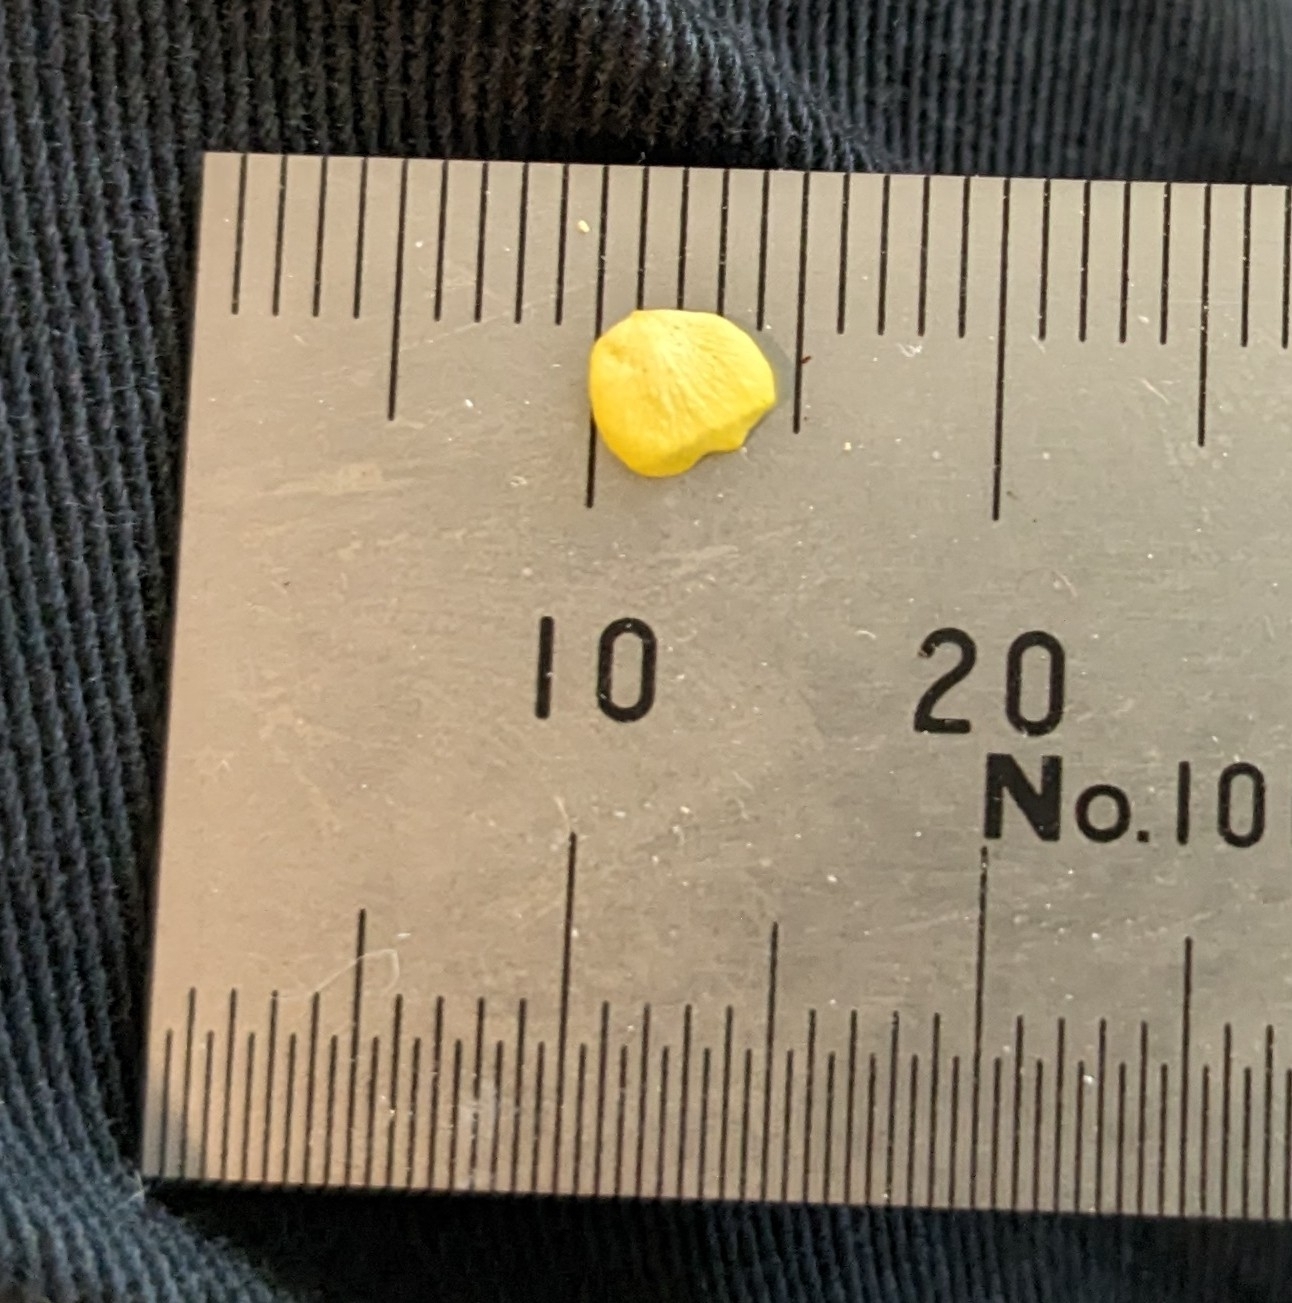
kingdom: Plantae
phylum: Tracheophyta
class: Magnoliopsida
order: Rosales
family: Rosaceae
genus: Potentilla
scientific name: Potentilla simplex
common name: Old field cinquefoil
